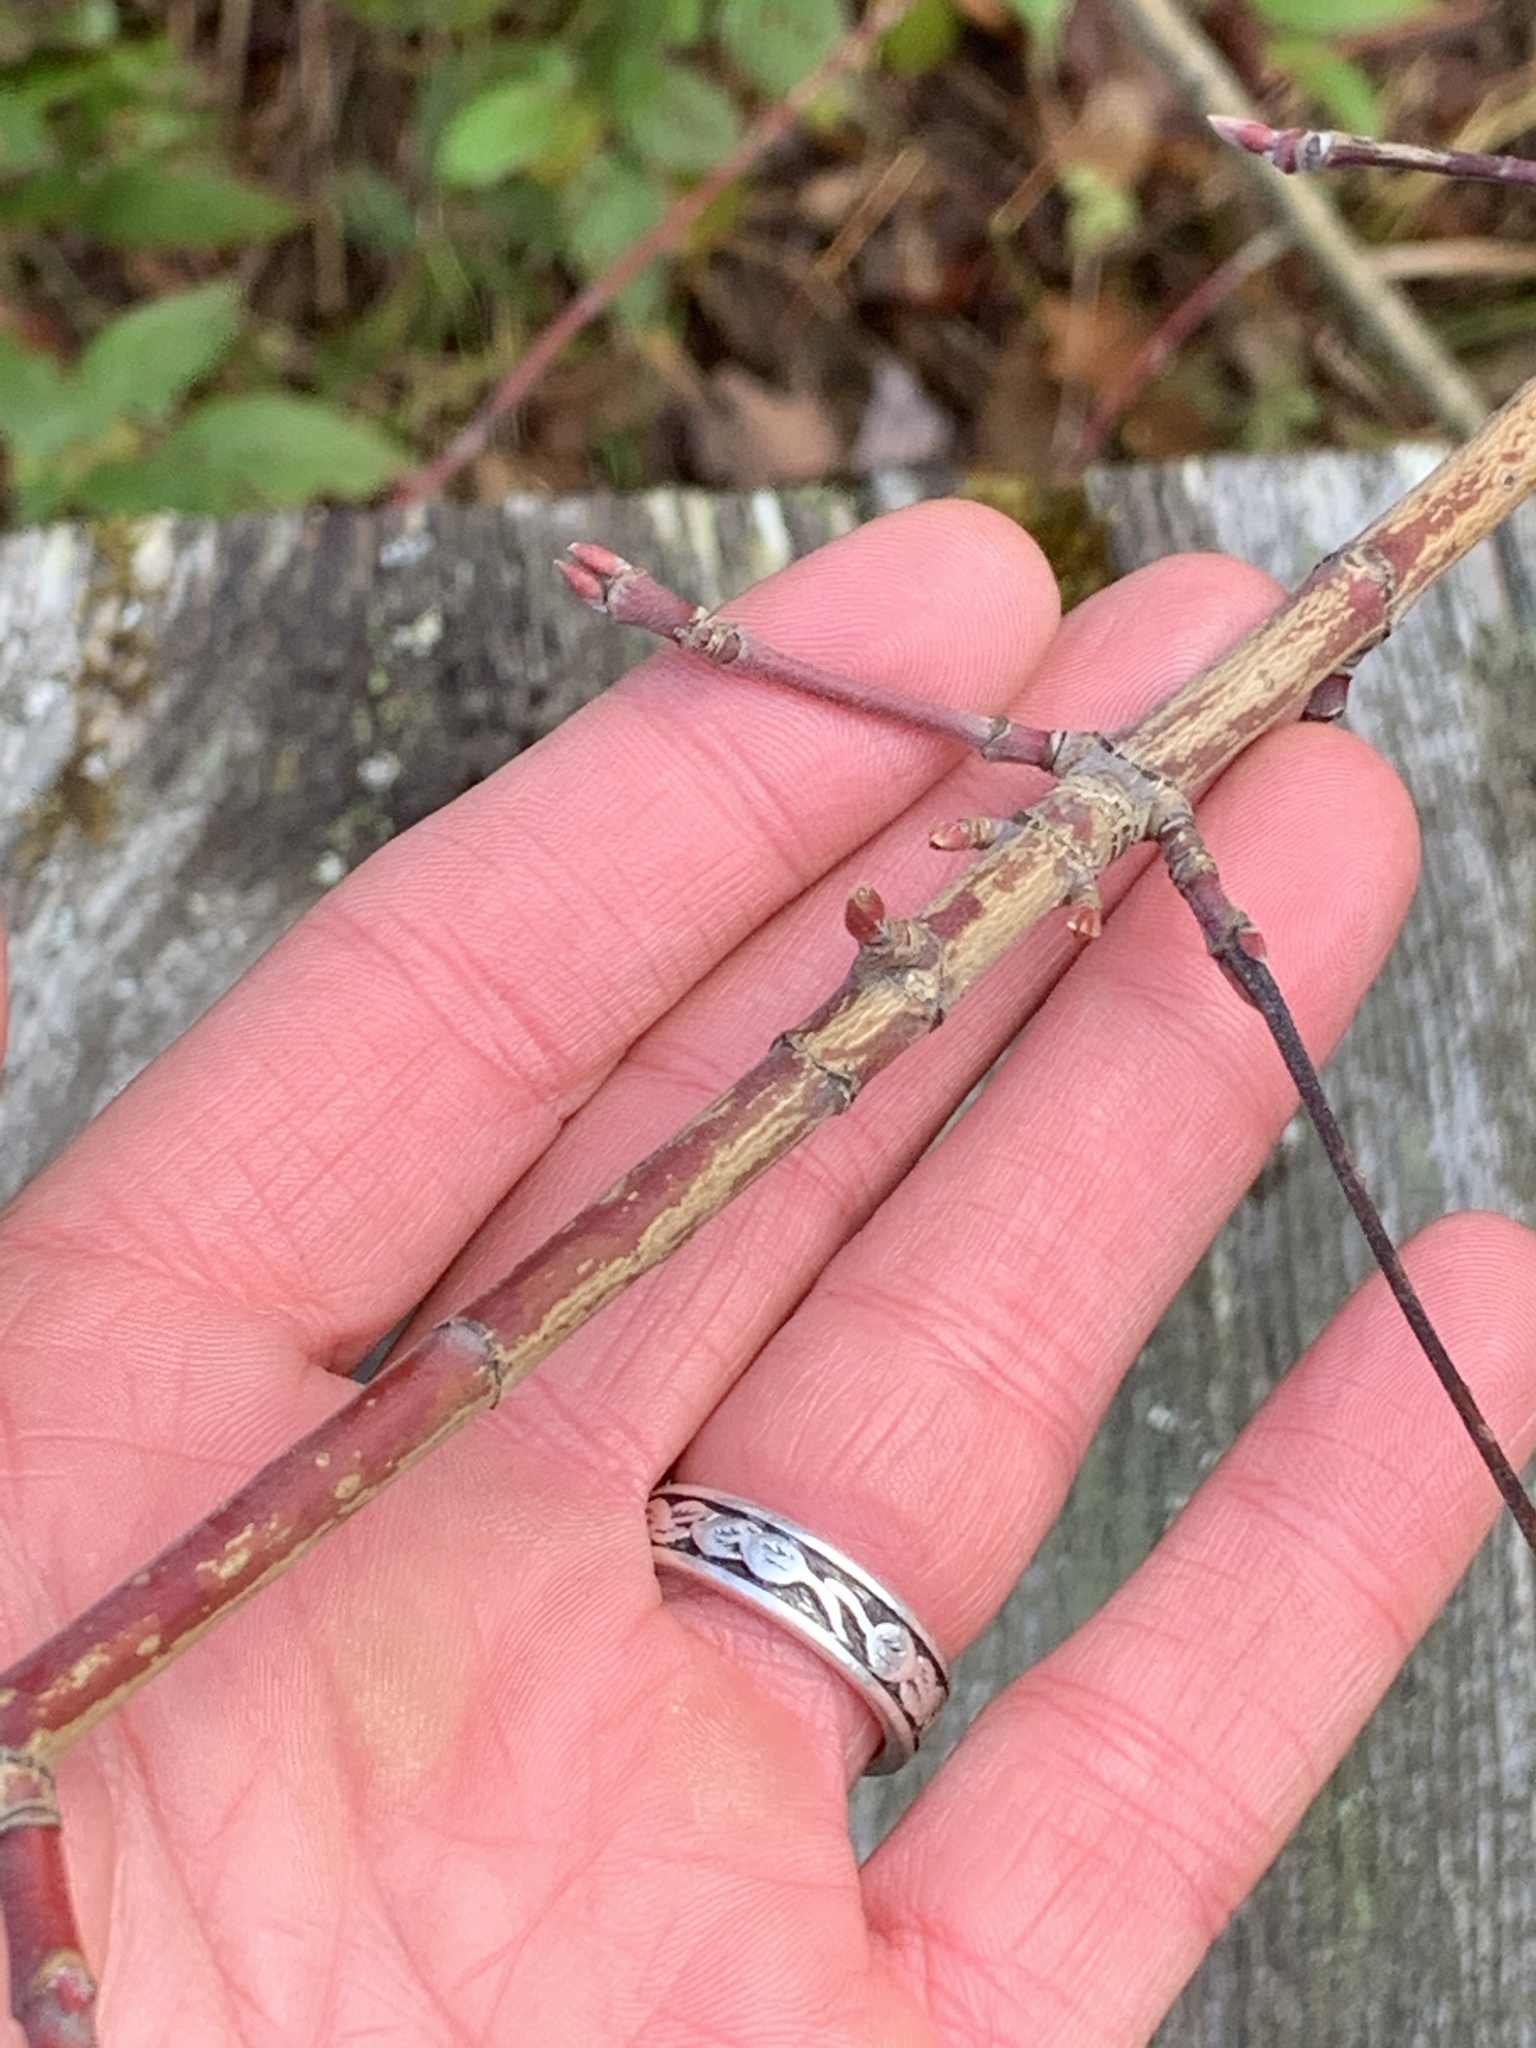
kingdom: Plantae
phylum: Tracheophyta
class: Magnoliopsida
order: Sapindales
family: Sapindaceae
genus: Acer
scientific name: Acer spicatum
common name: Mountain maple
